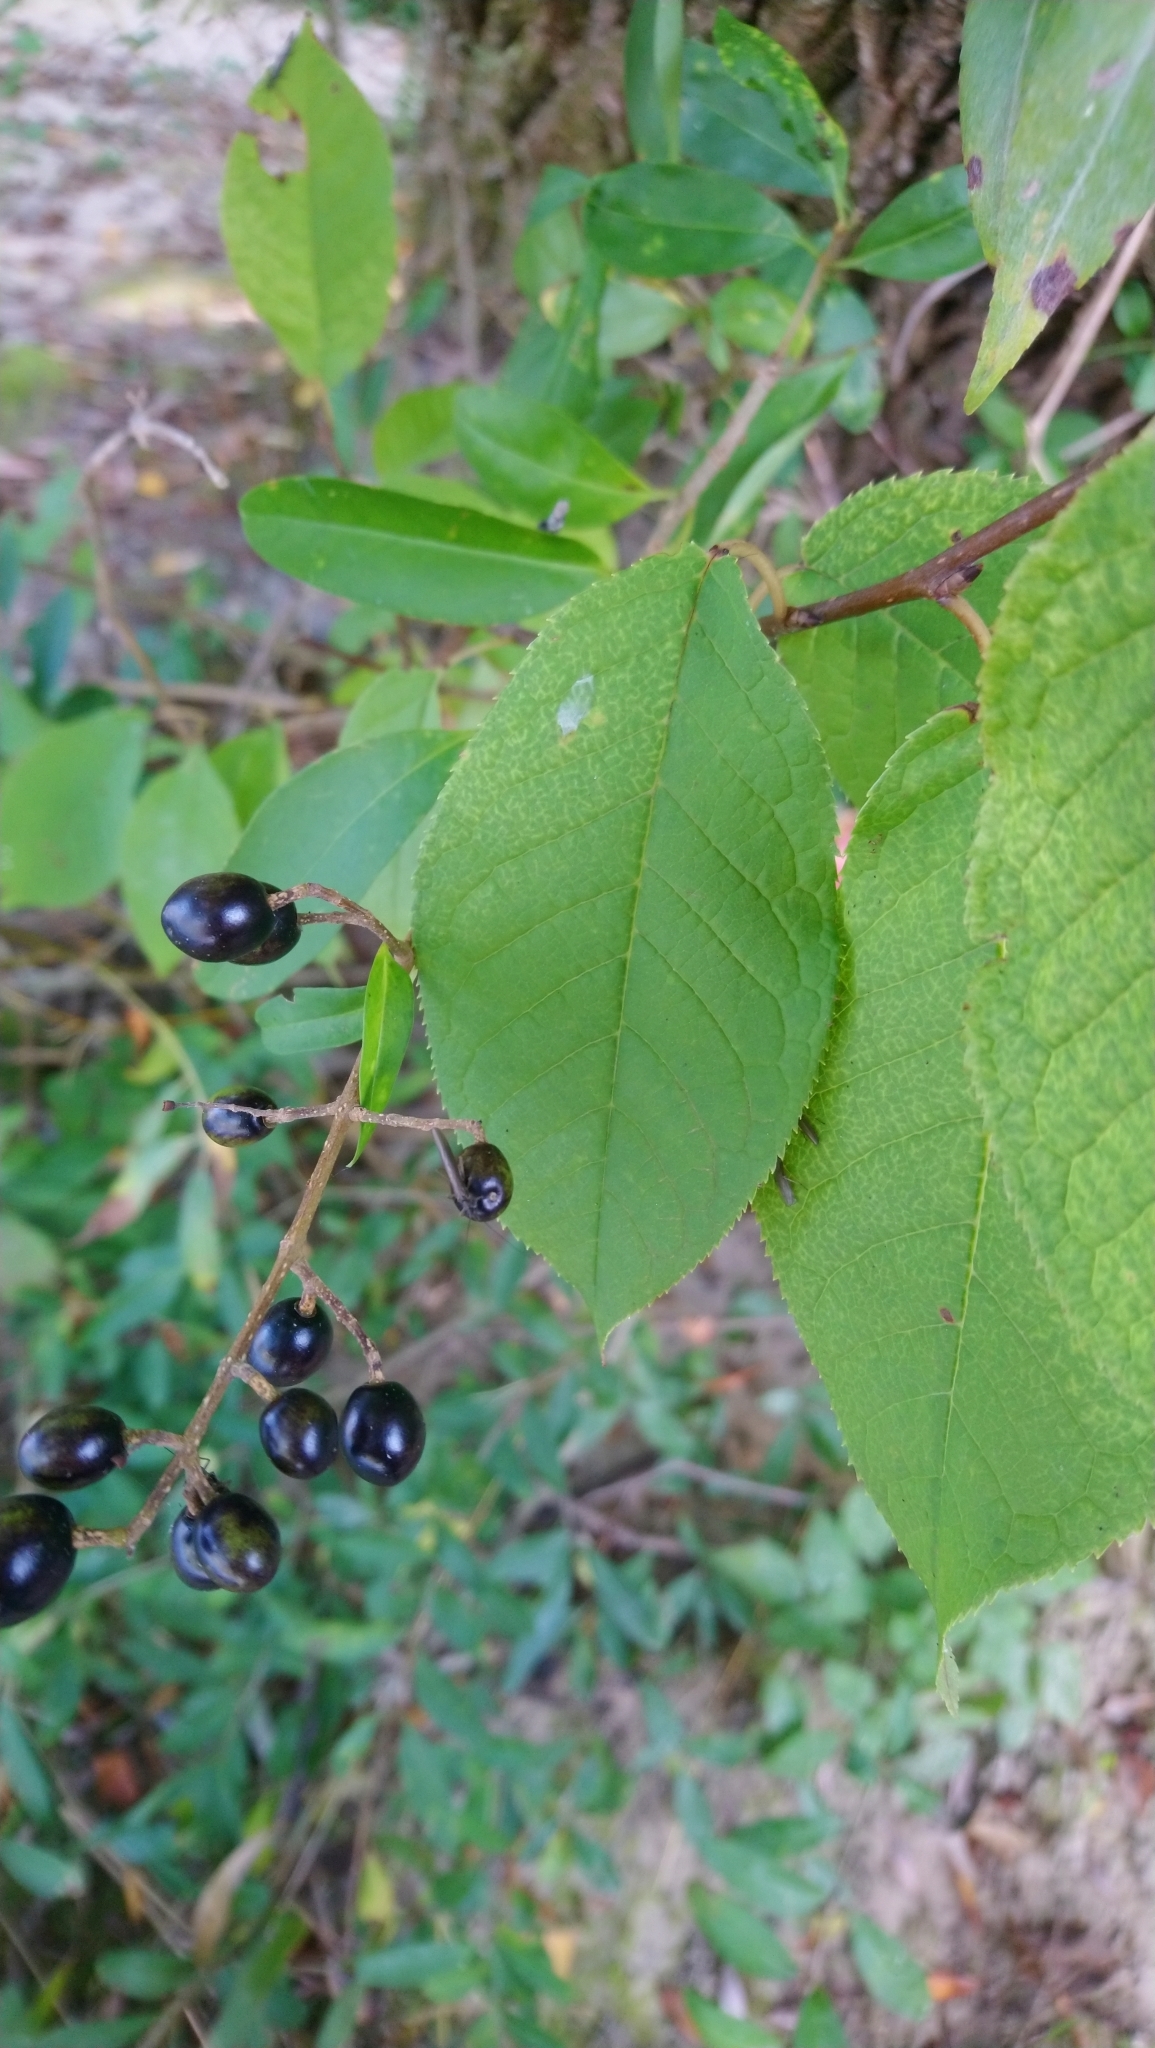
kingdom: Plantae
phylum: Tracheophyta
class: Magnoliopsida
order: Rosales
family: Rosaceae
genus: Prunus
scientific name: Prunus padus
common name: Bird cherry
